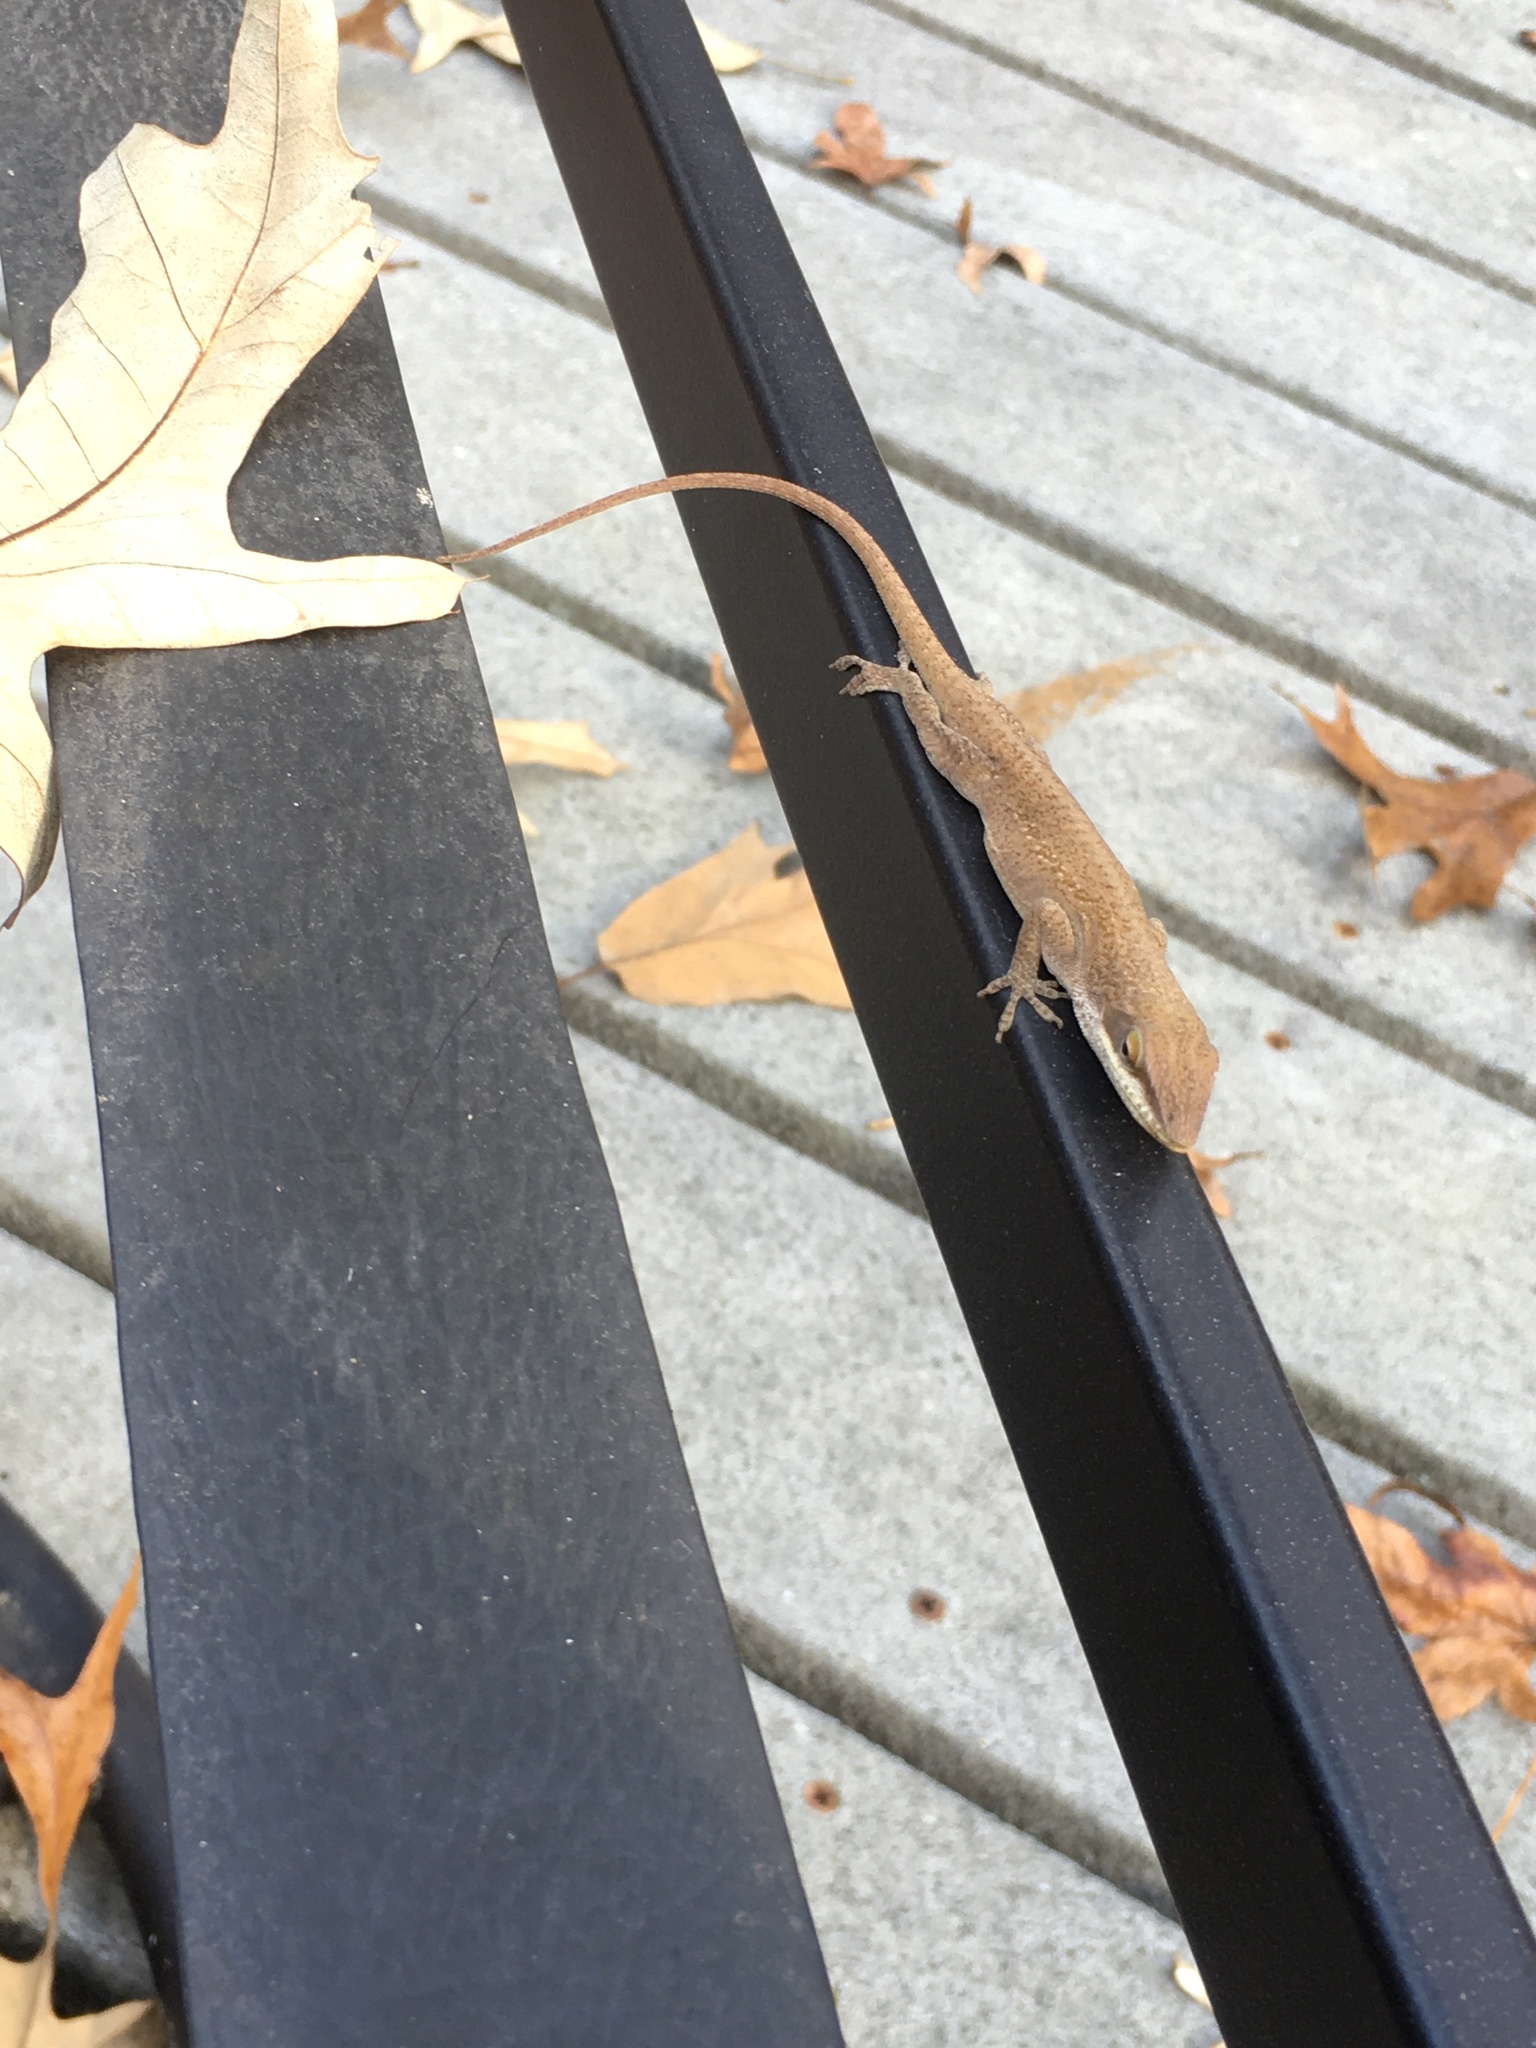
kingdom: Animalia
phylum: Chordata
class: Squamata
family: Dactyloidae
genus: Anolis
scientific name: Anolis carolinensis
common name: Green anole
